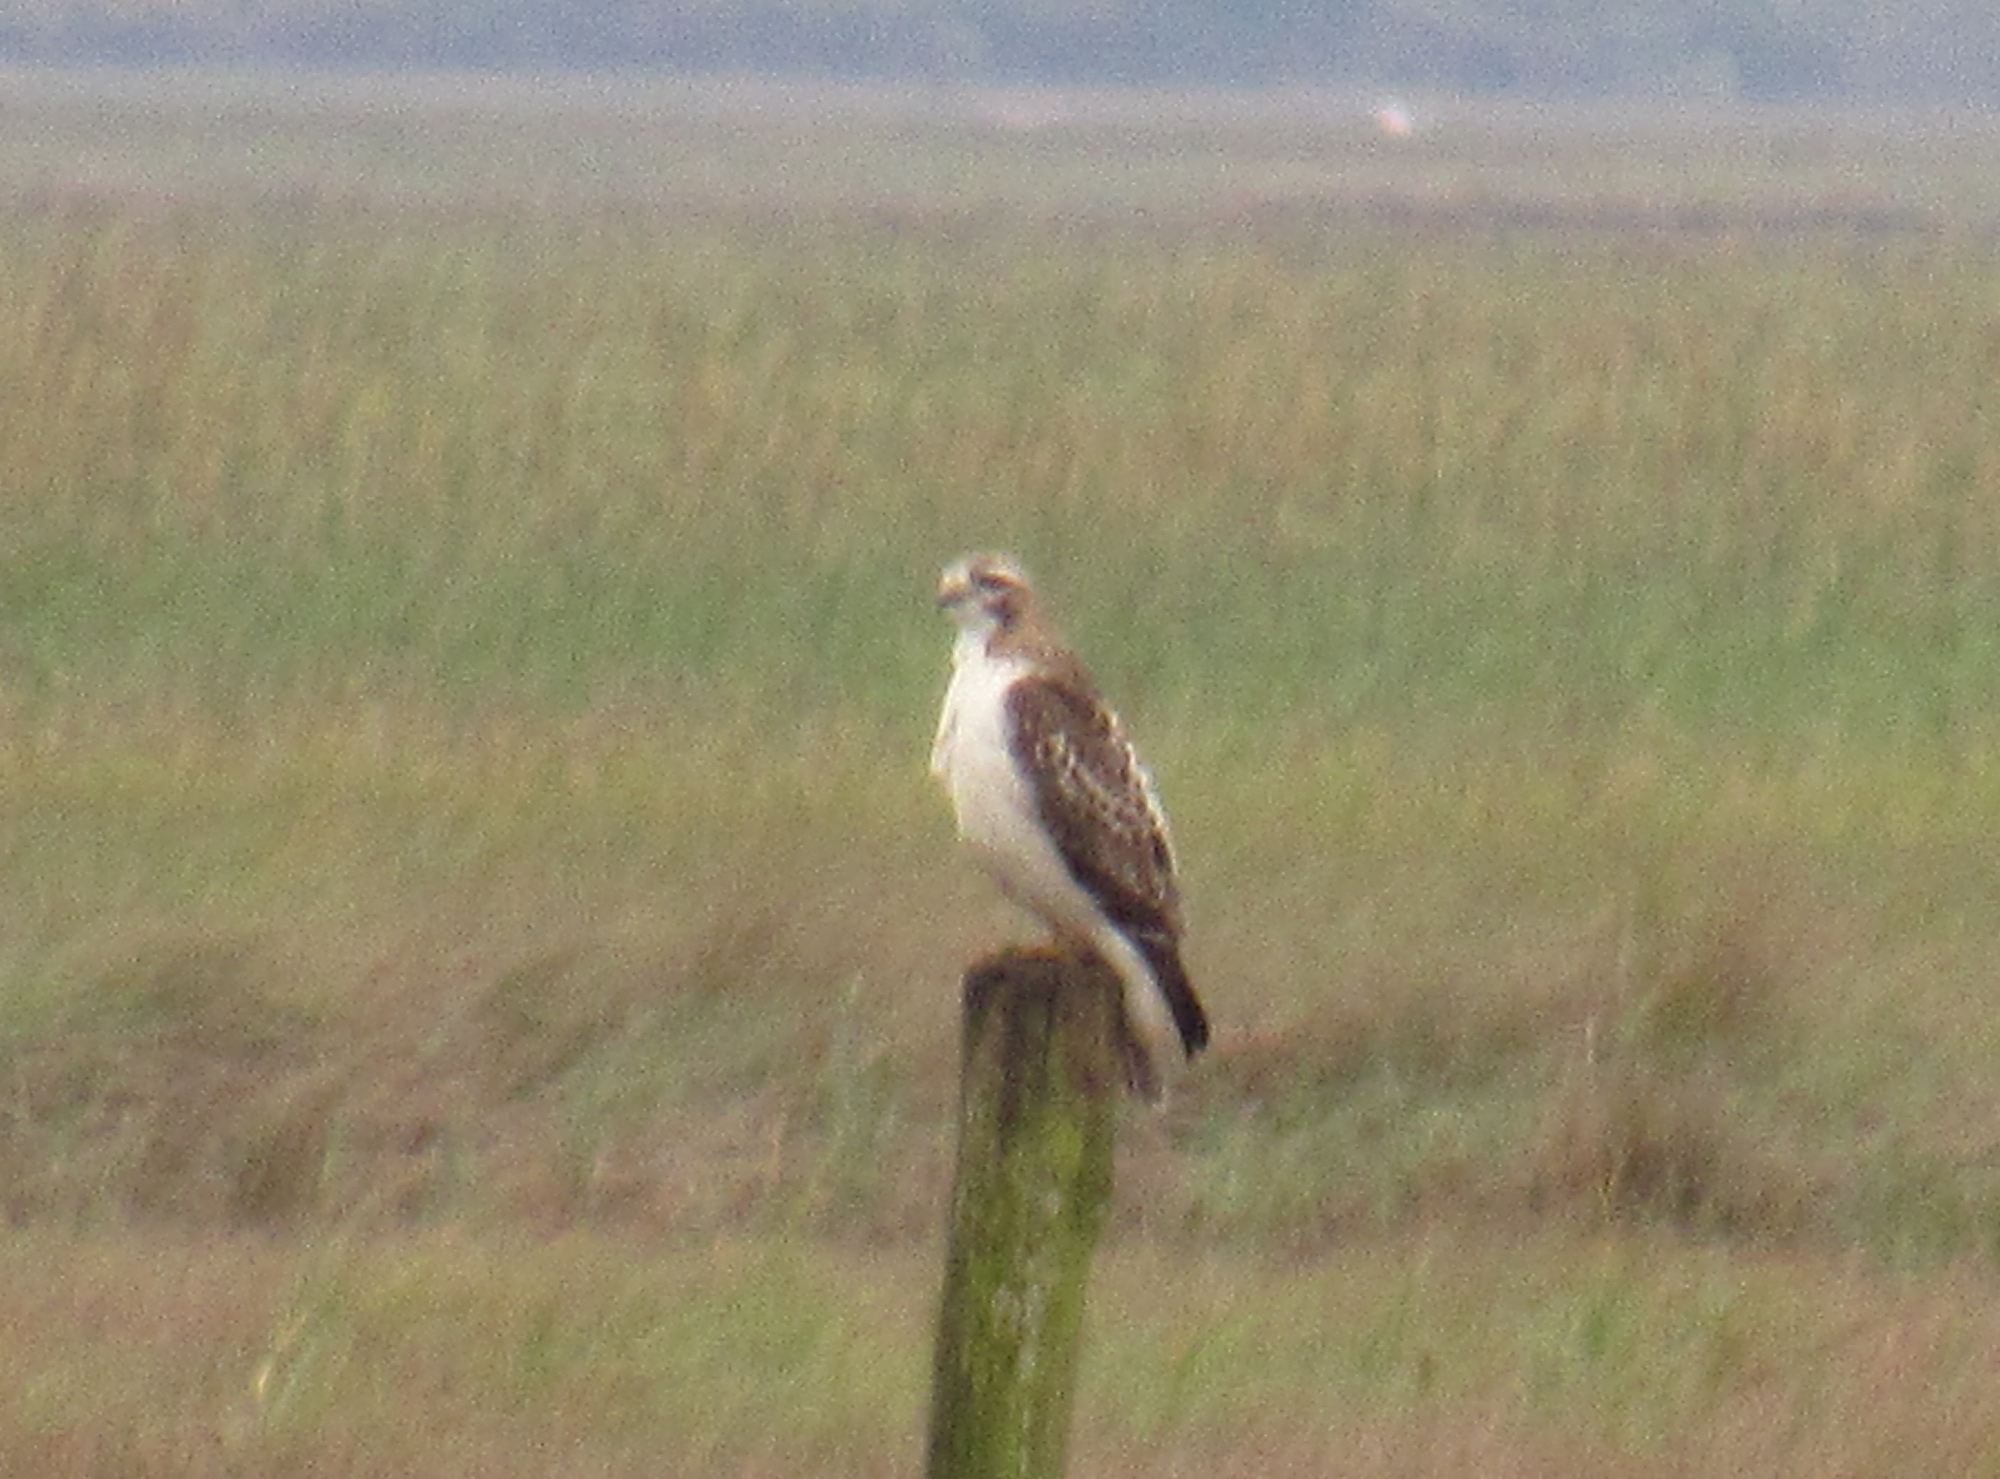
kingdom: Animalia
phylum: Chordata
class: Aves
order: Accipitriformes
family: Accipitridae
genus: Buteo
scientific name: Buteo jamaicensis
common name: Red-tailed hawk
